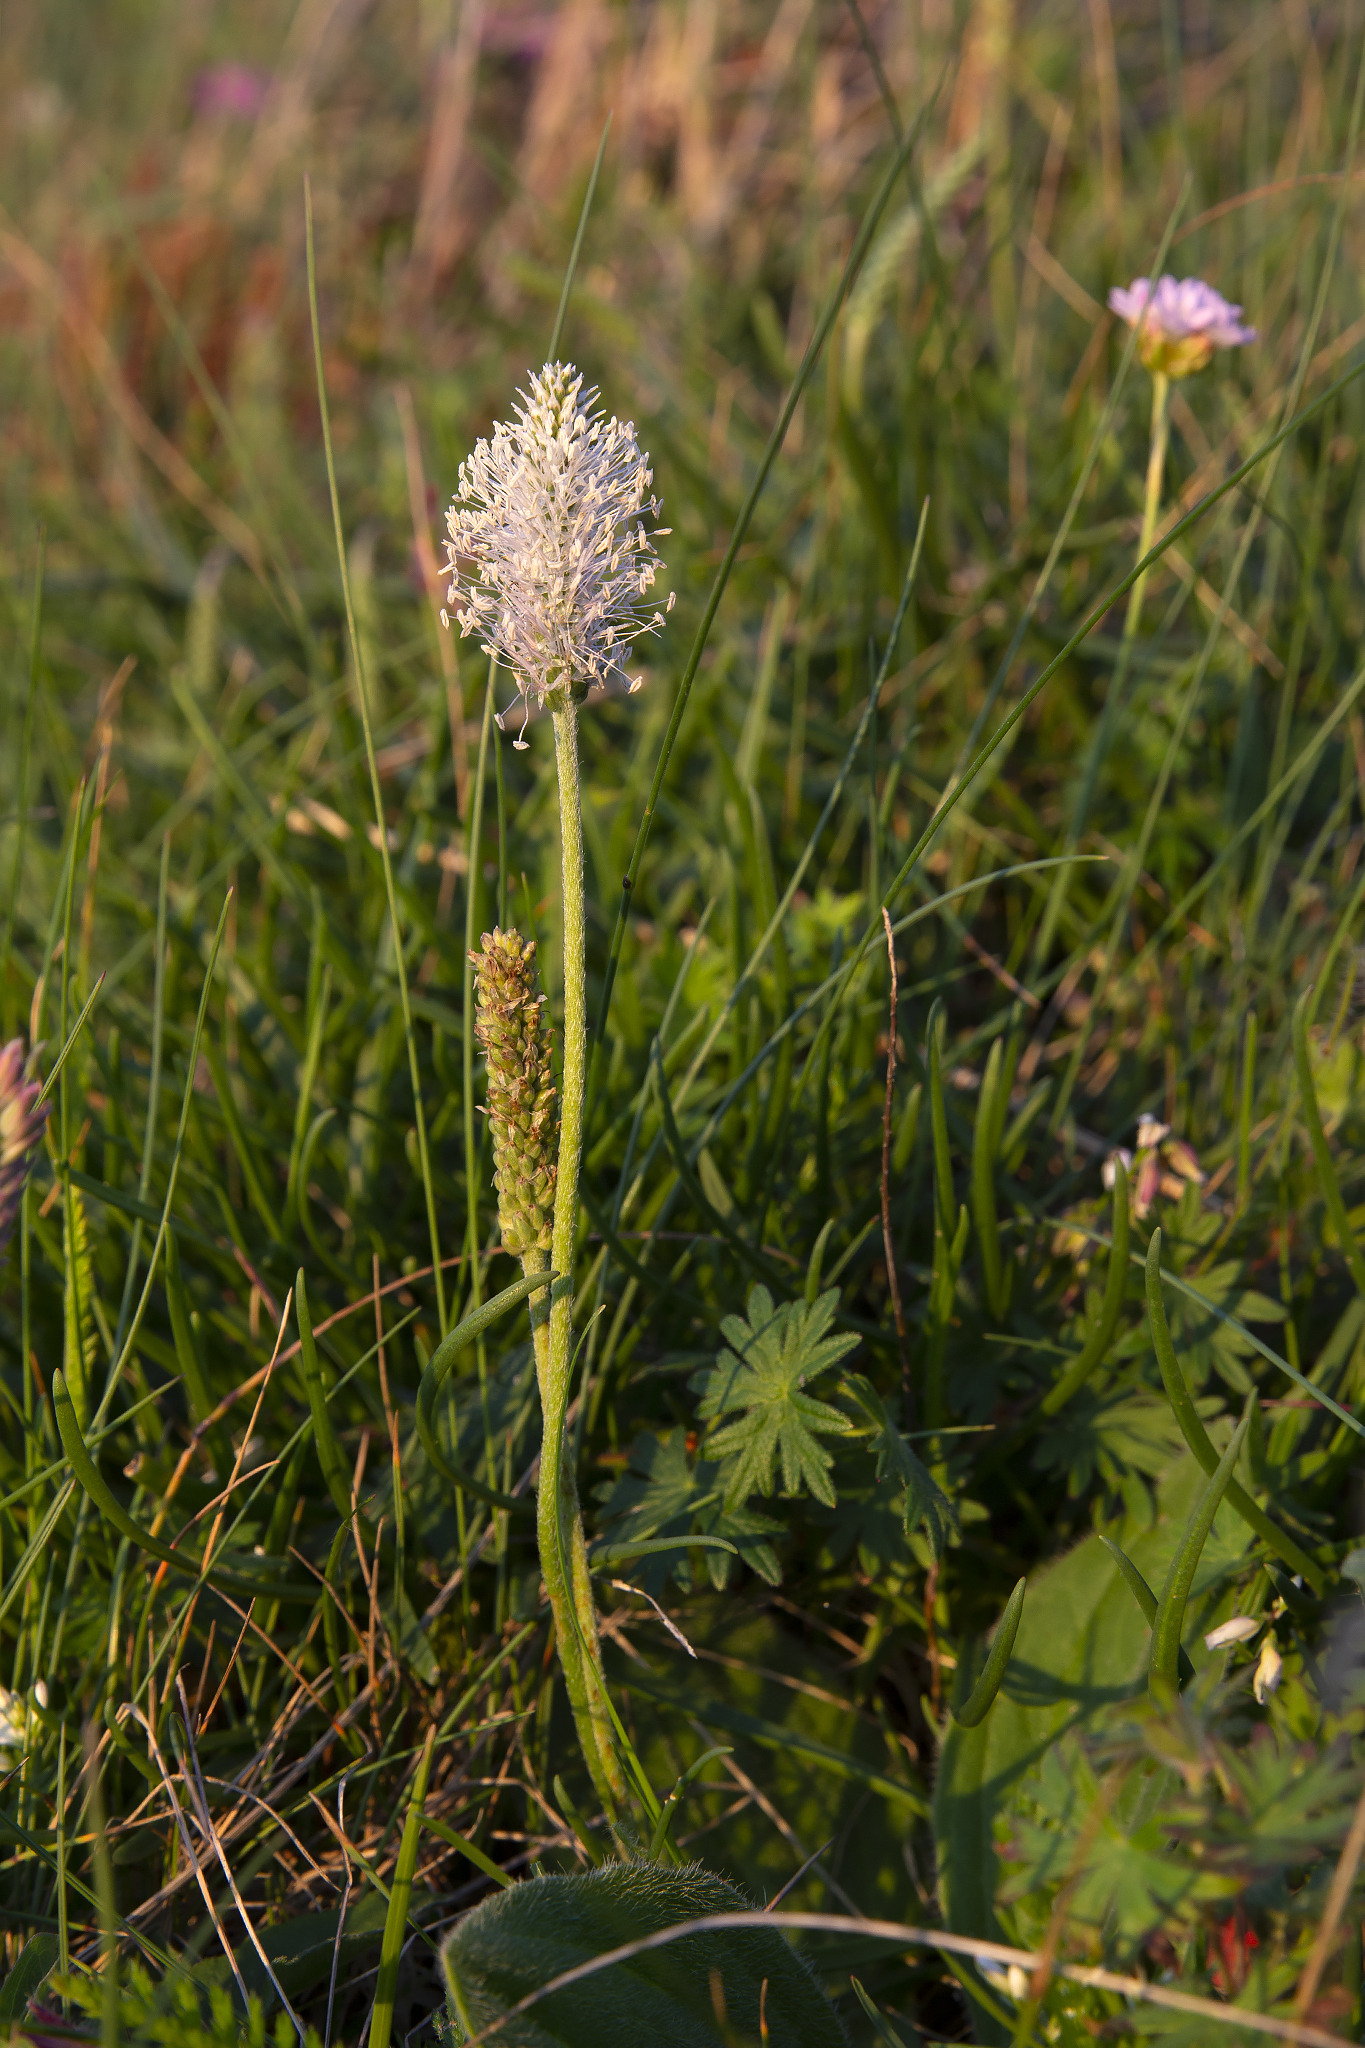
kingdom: Plantae
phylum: Tracheophyta
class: Magnoliopsida
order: Lamiales
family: Plantaginaceae
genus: Plantago
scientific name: Plantago media
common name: Hoary plantain
